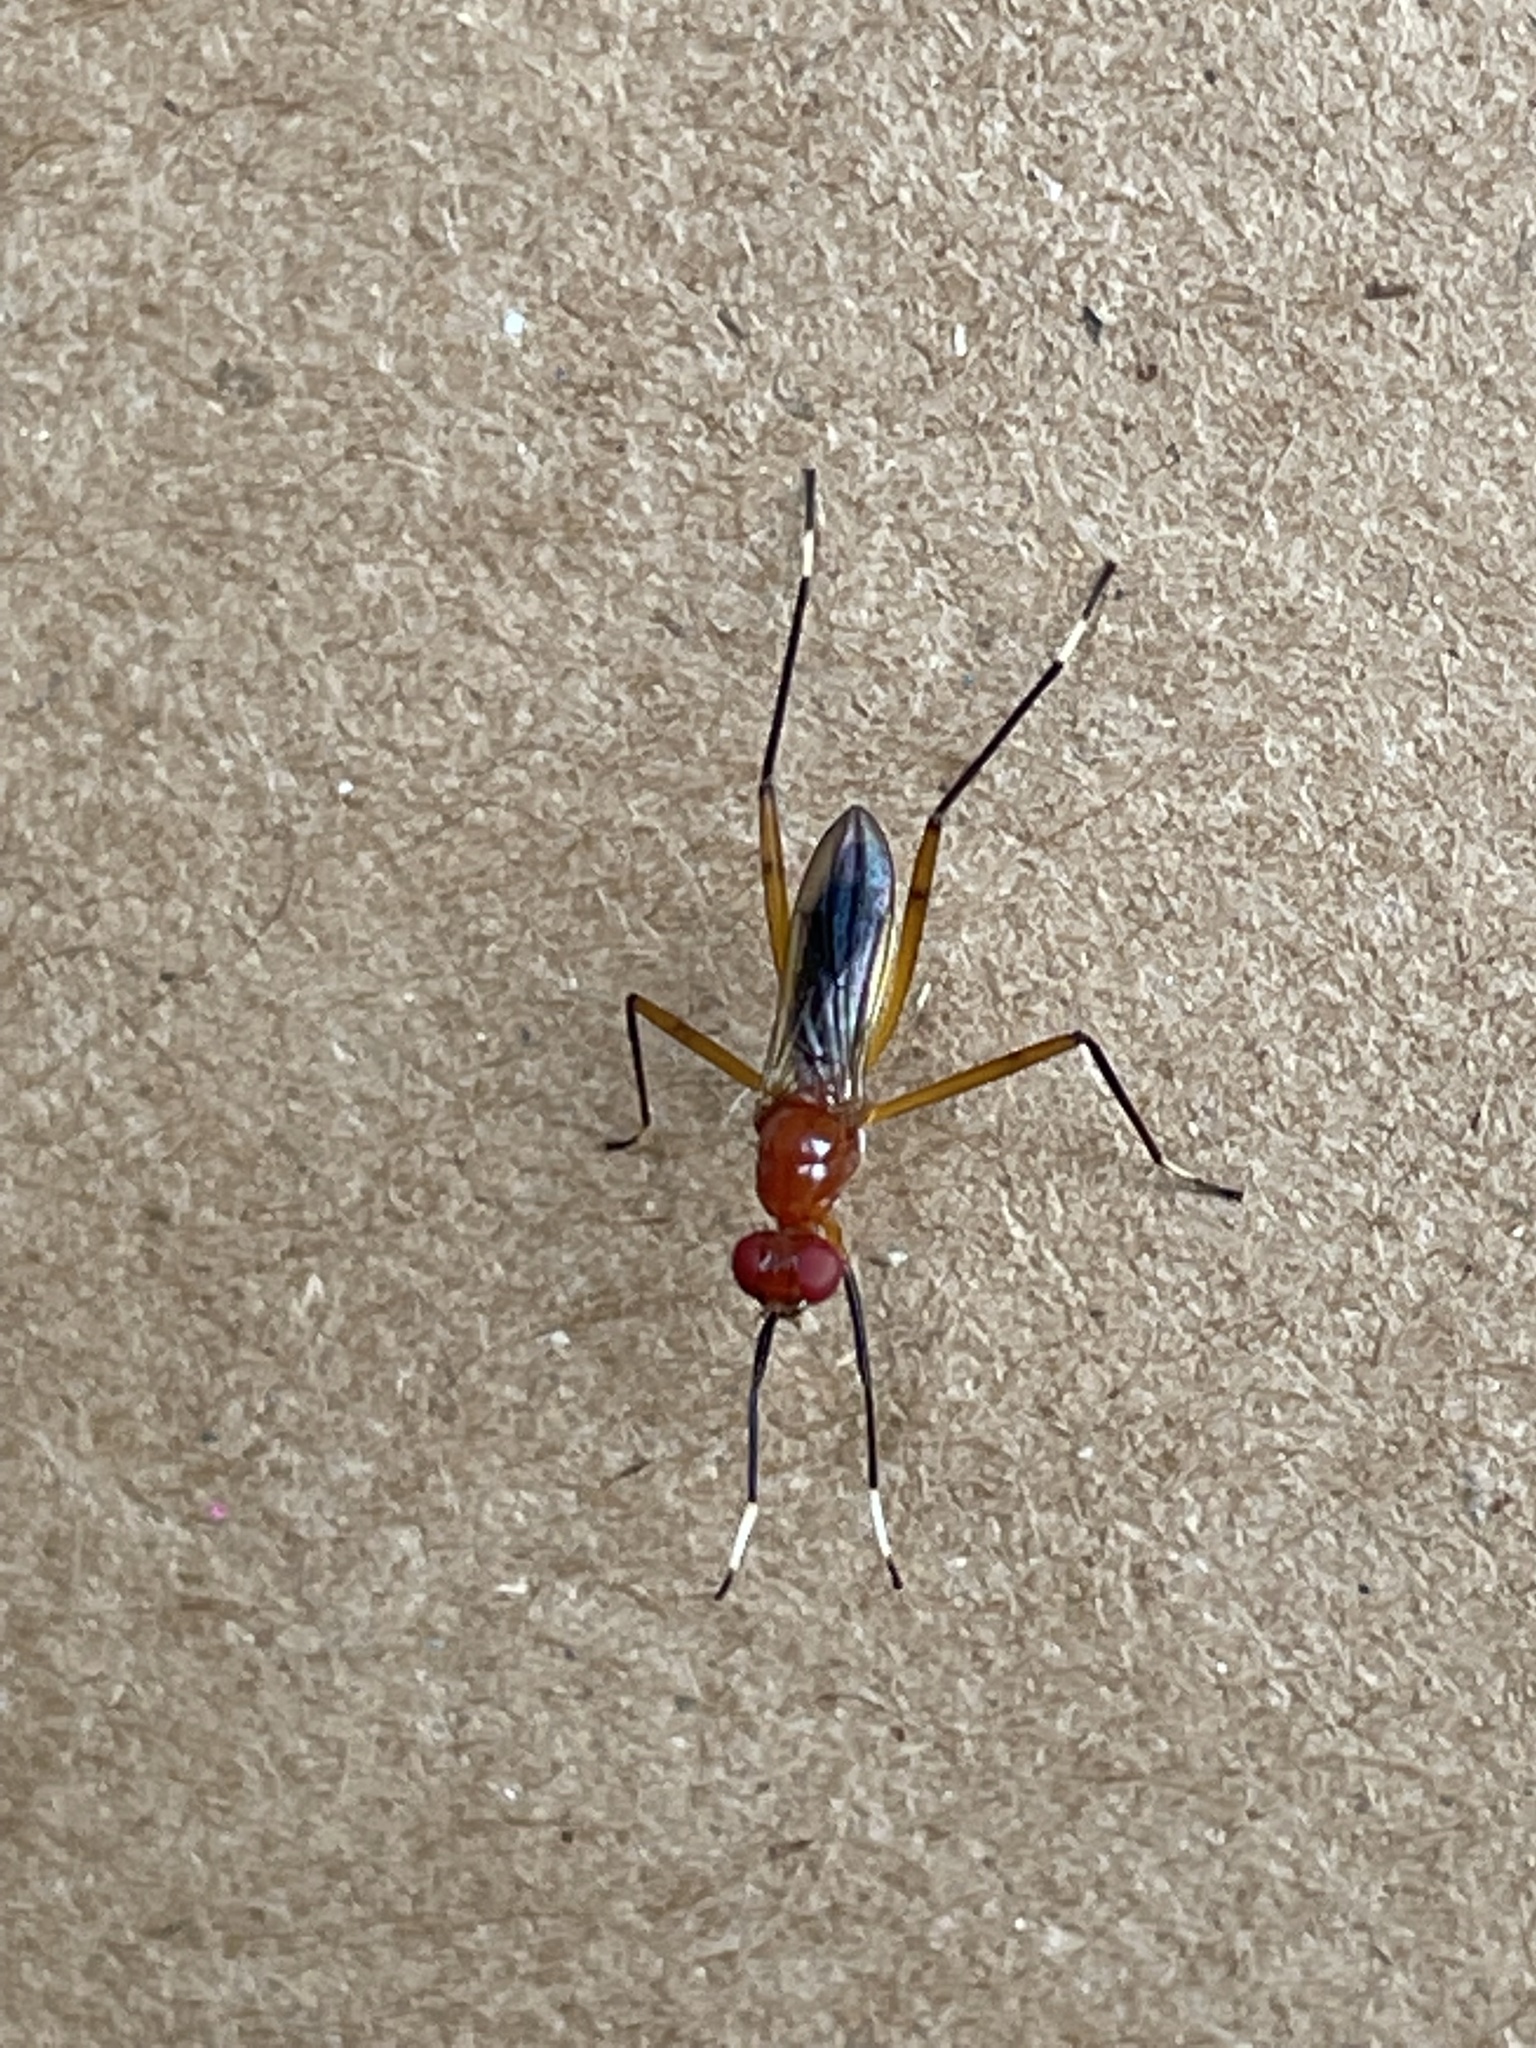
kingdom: Animalia
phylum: Arthropoda
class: Insecta
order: Diptera
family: Micropezidae
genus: Grallipeza
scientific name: Grallipeza nebulosa
